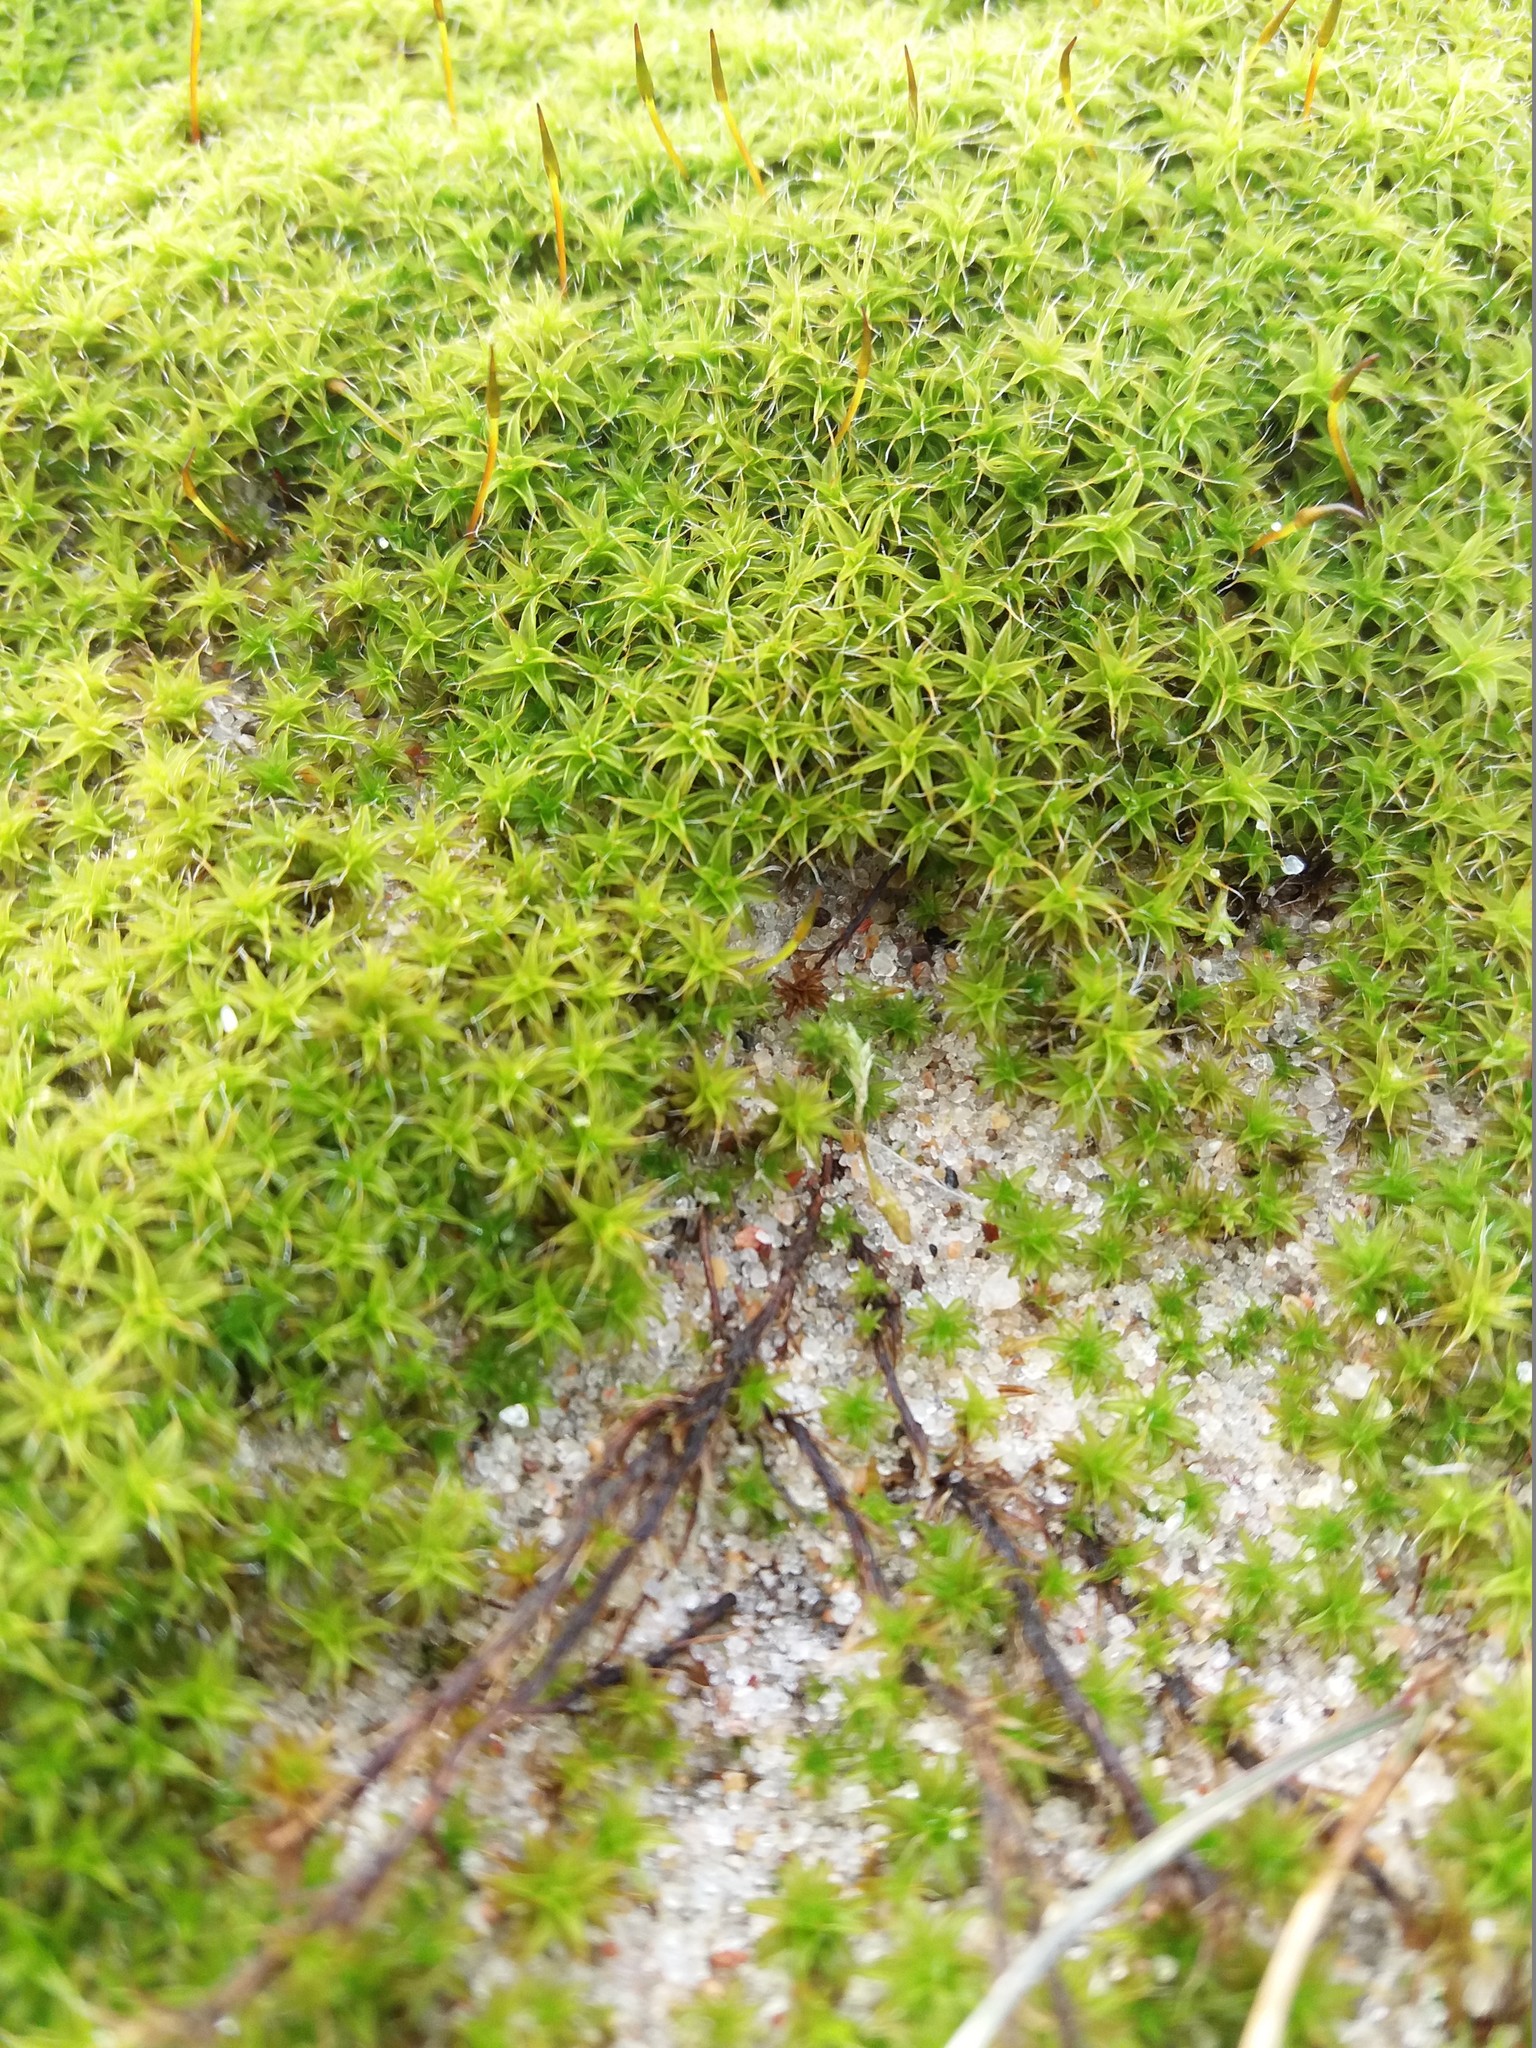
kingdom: Plantae
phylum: Bryophyta
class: Bryopsida
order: Pottiales
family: Pottiaceae
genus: Syntrichia
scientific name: Syntrichia ruralis
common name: Sidewalk screw moss
